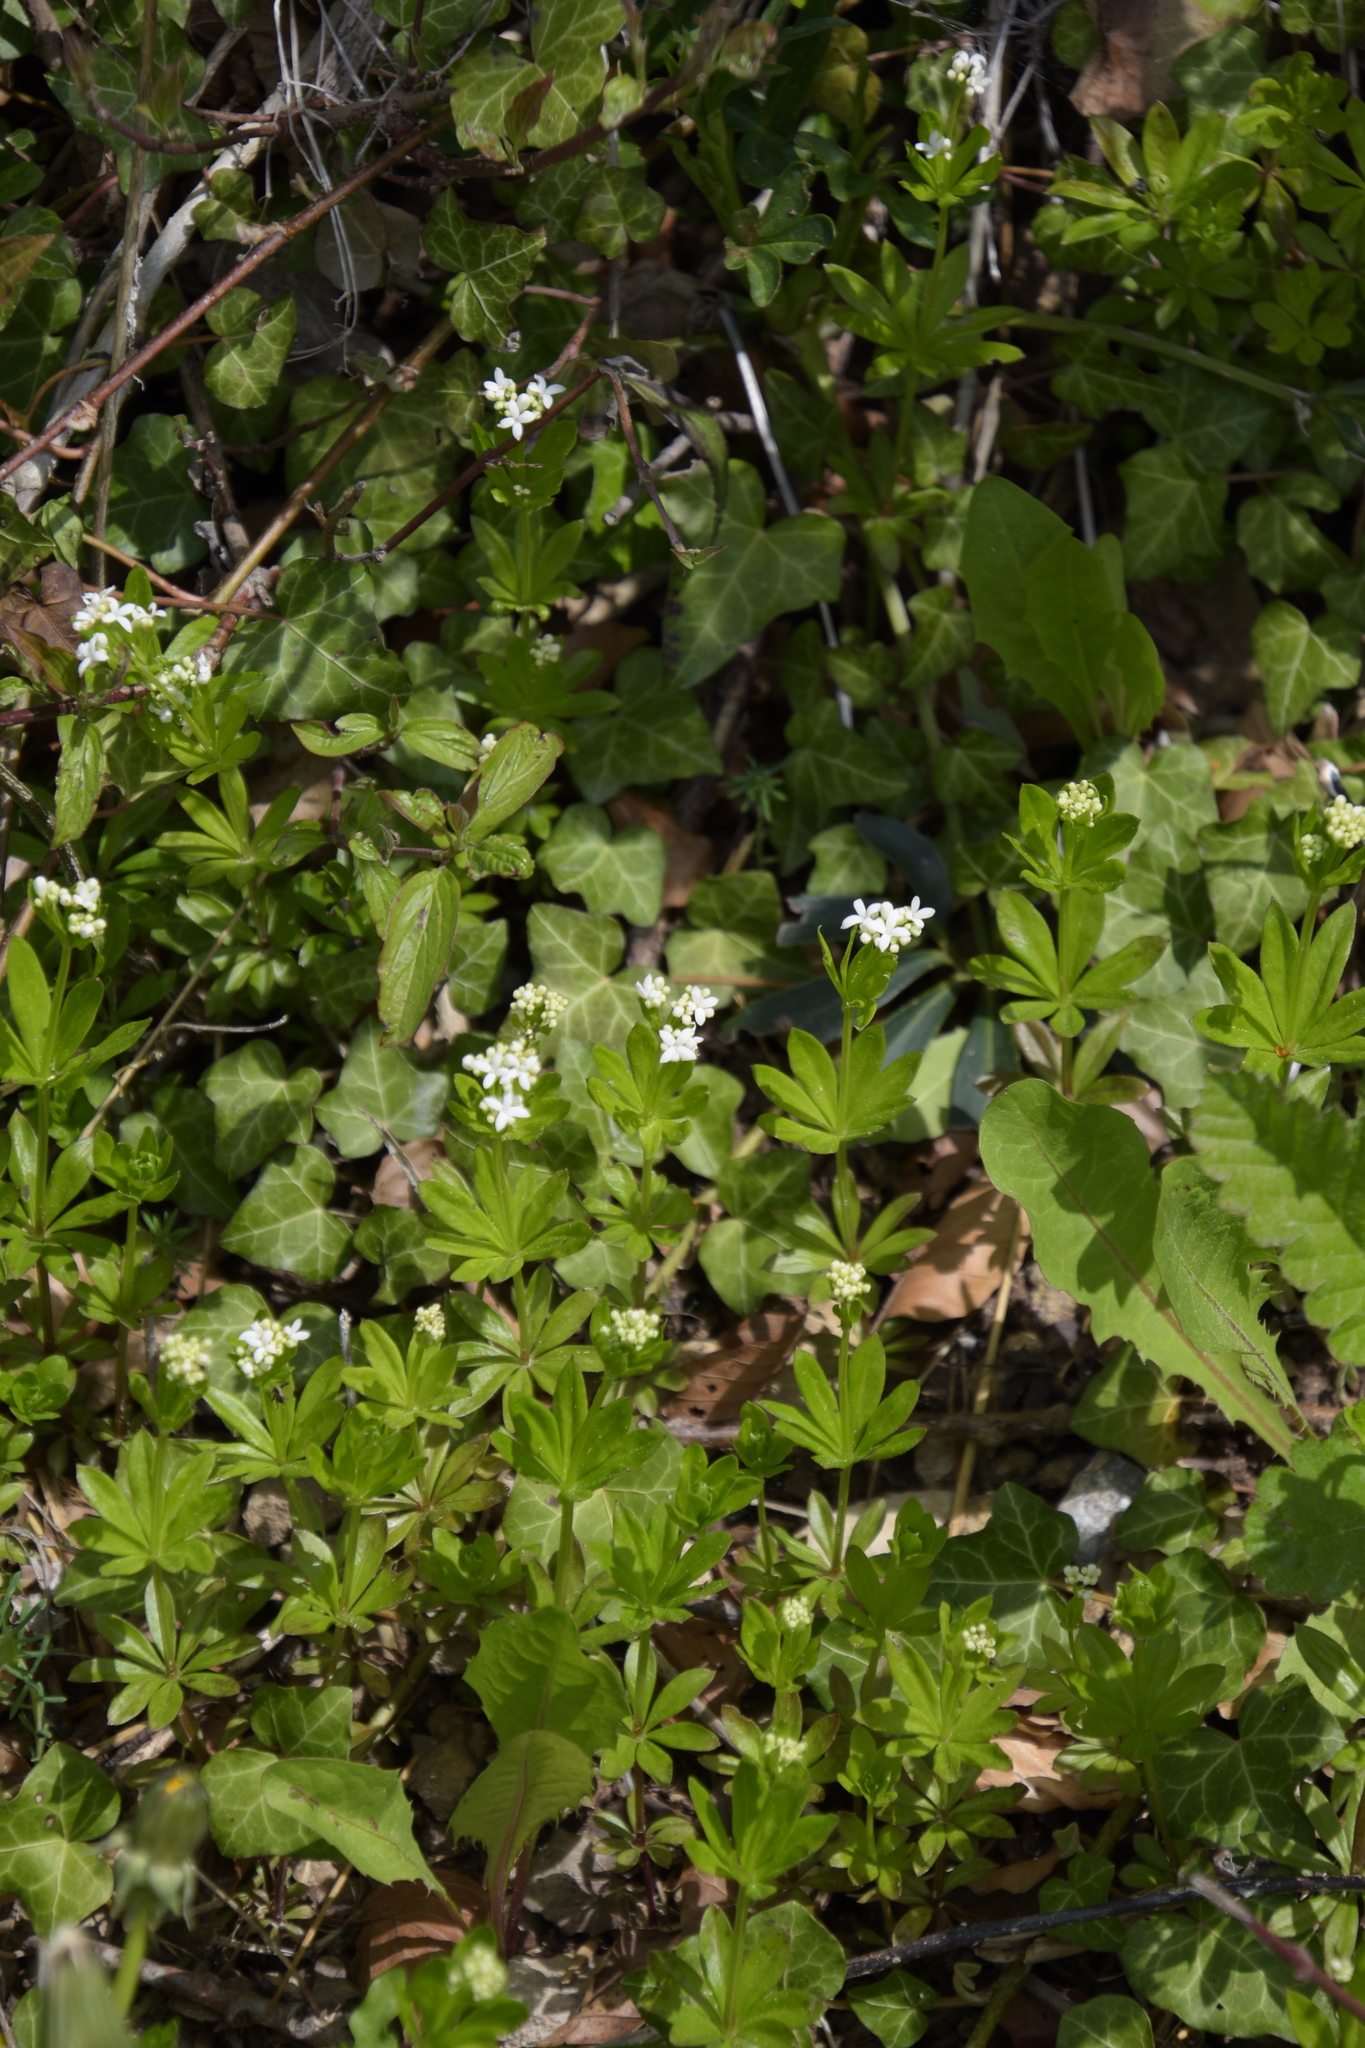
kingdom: Plantae
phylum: Tracheophyta
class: Magnoliopsida
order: Gentianales
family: Rubiaceae
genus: Galium
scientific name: Galium odoratum
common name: Sweet woodruff
